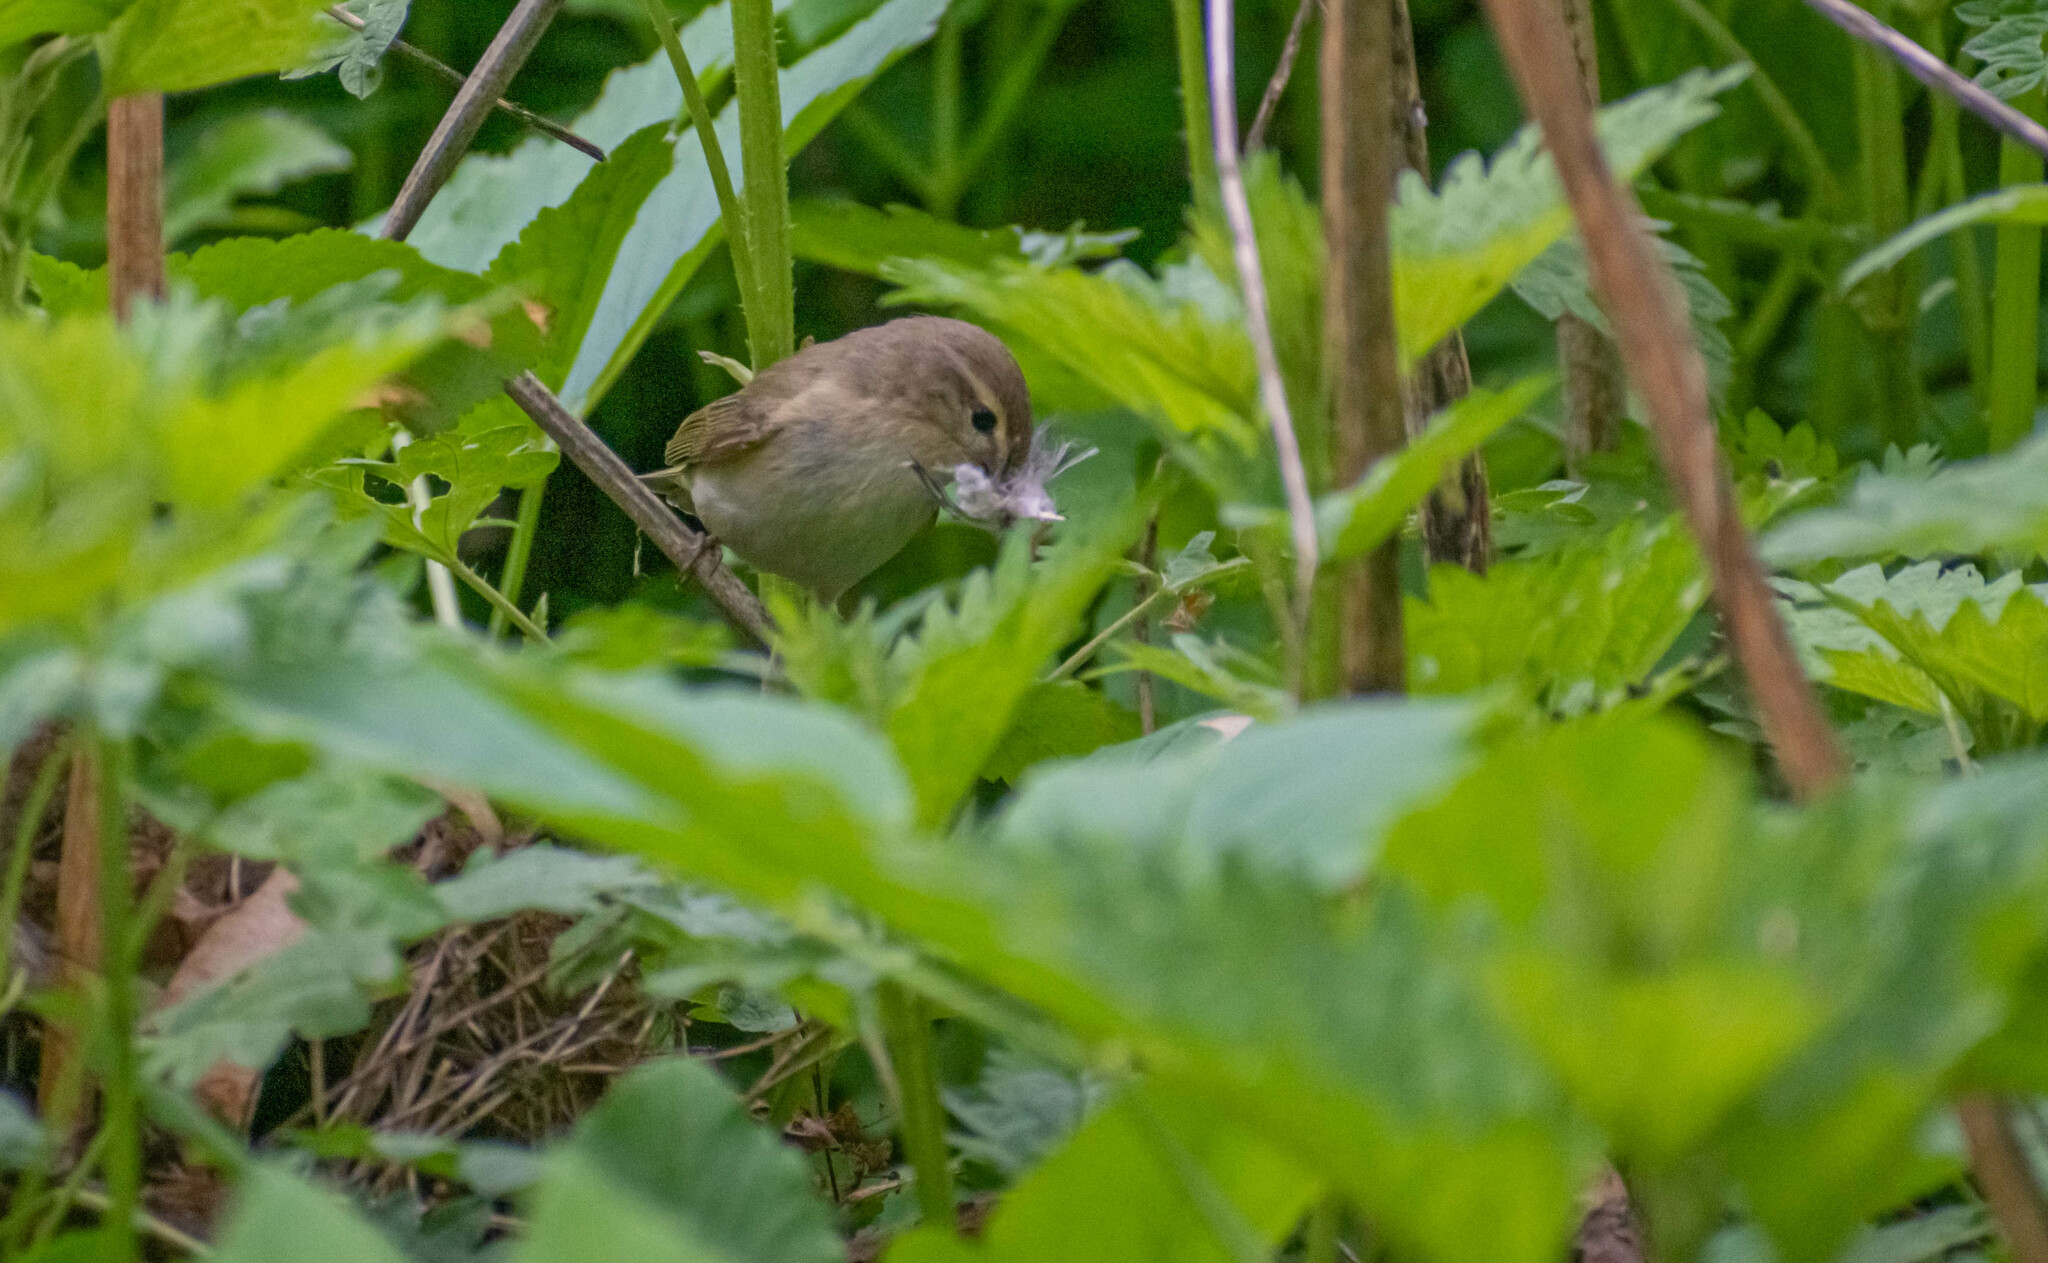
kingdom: Animalia
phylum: Chordata
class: Aves
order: Passeriformes
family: Phylloscopidae
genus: Phylloscopus
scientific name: Phylloscopus collybita
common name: Common chiffchaff
